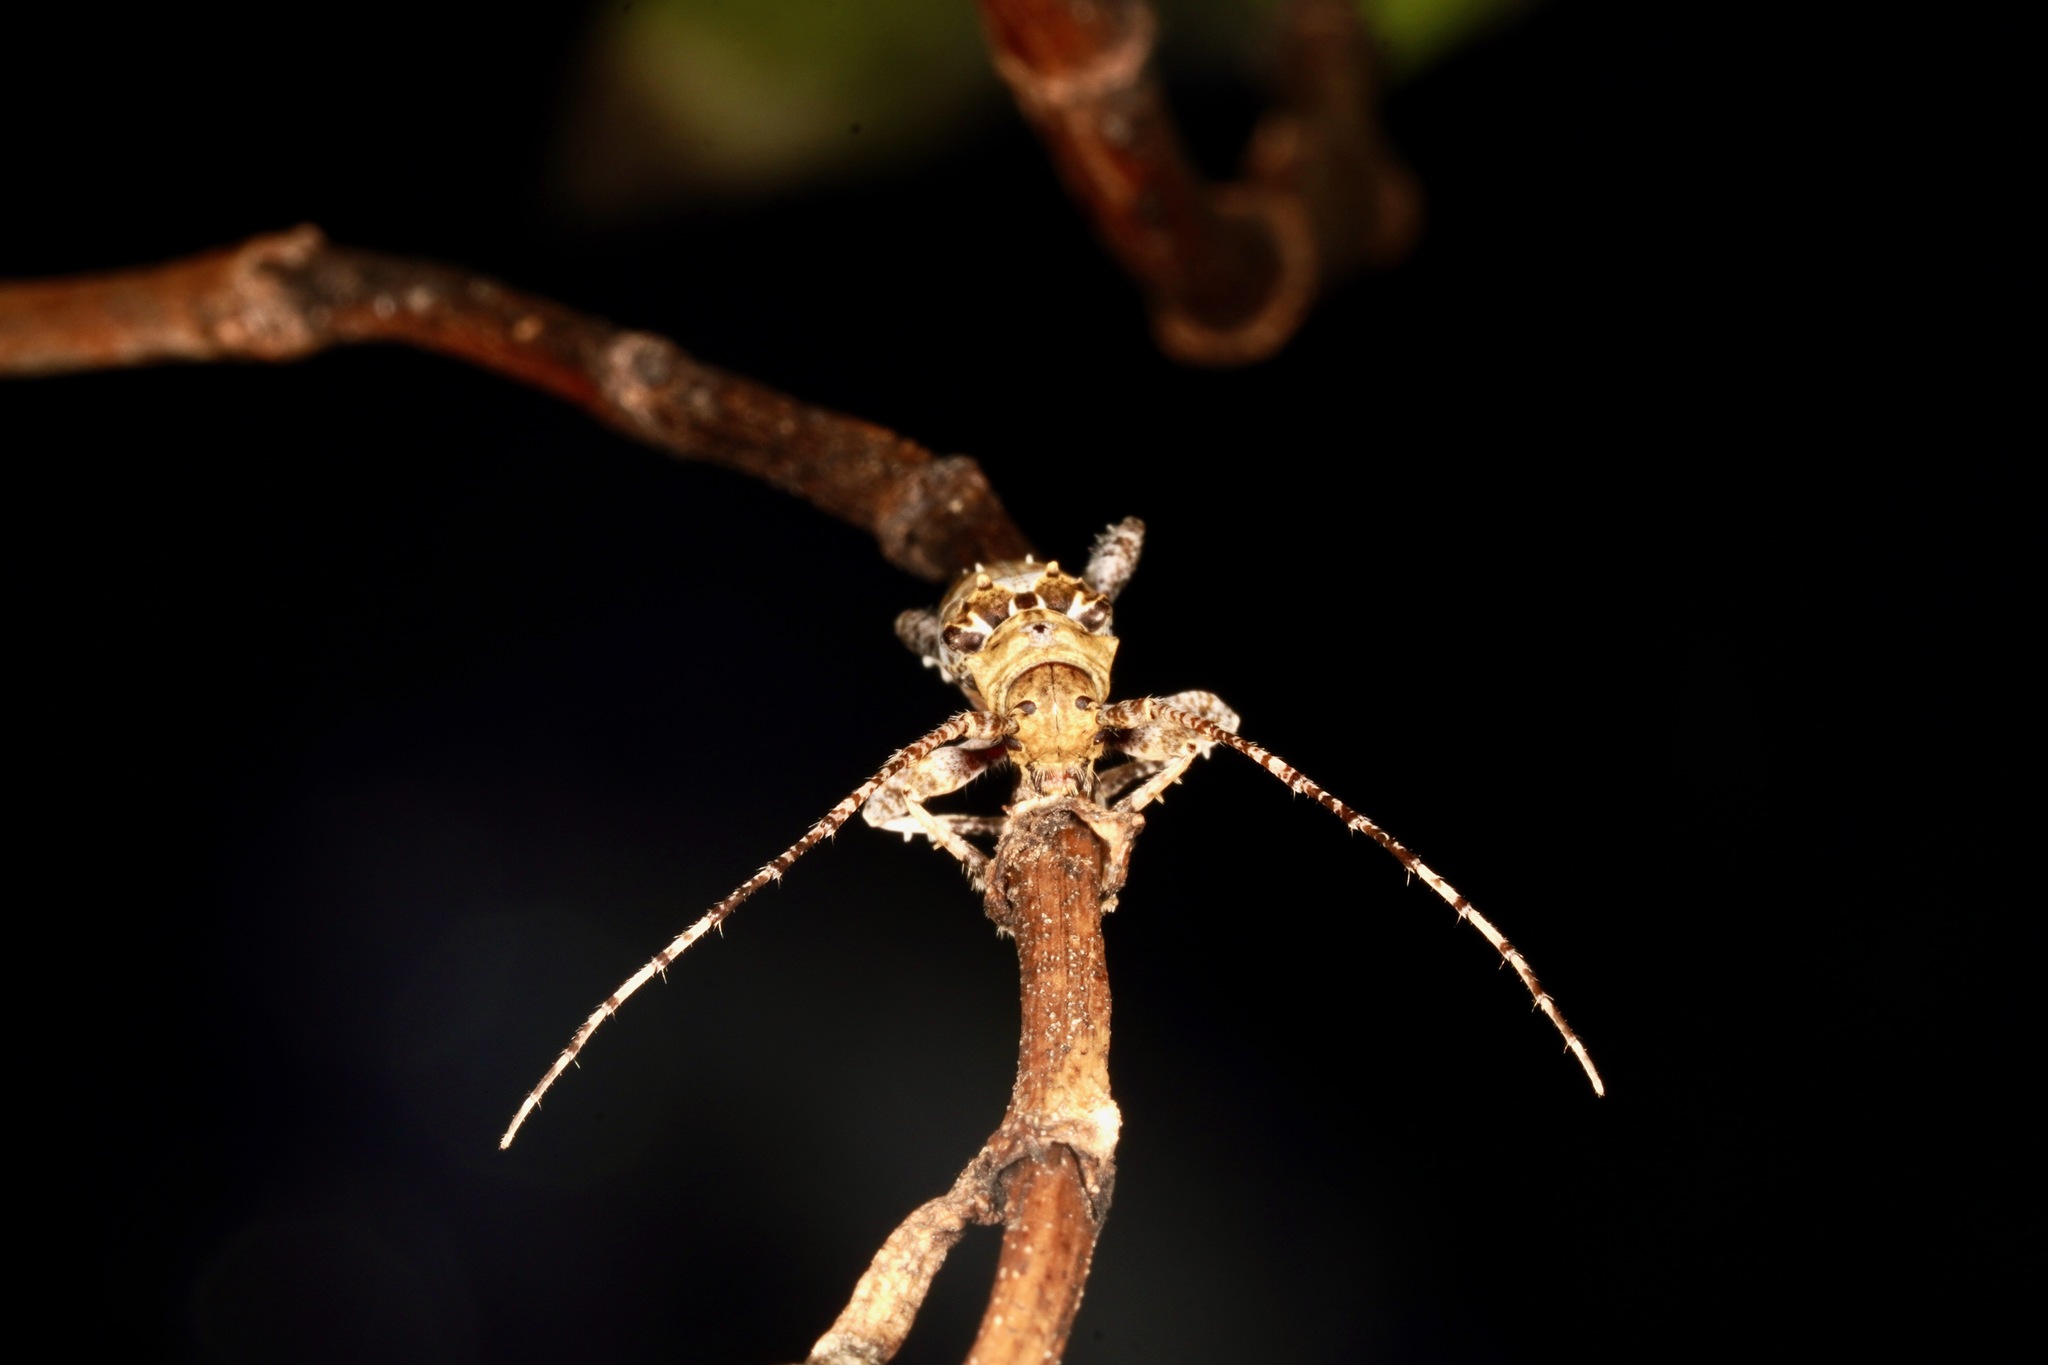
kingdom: Animalia
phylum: Arthropoda
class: Insecta
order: Coleoptera
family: Cerambycidae
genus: Tetrorea
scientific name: Tetrorea cilipes
